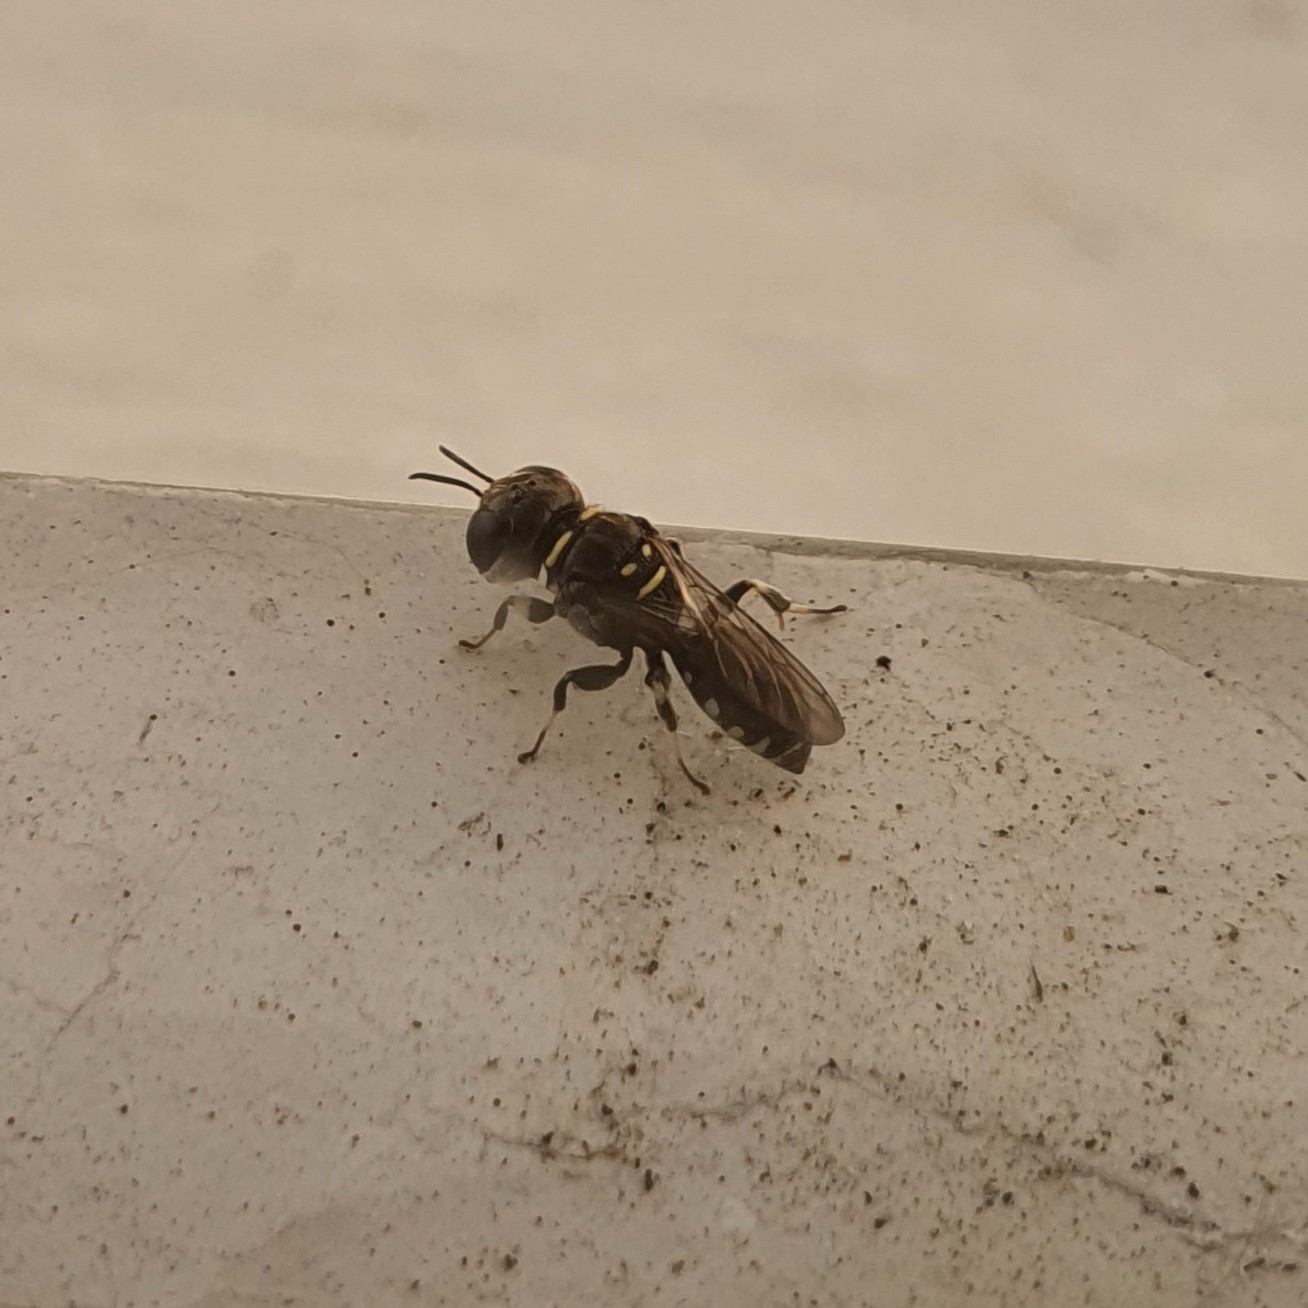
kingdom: Animalia
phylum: Arthropoda
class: Insecta
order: Hymenoptera
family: Crabronidae
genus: Vechtia
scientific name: Vechtia rugosa
